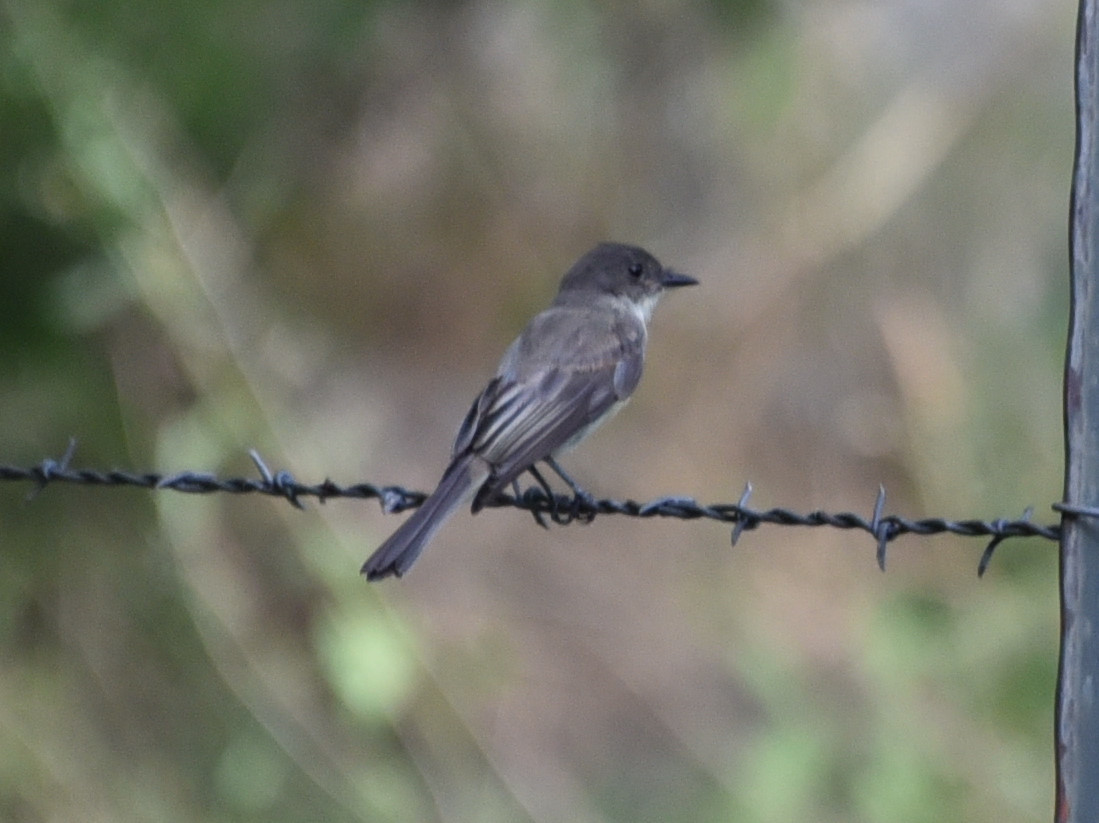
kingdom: Animalia
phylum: Chordata
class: Aves
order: Passeriformes
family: Tyrannidae
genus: Sayornis
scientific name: Sayornis phoebe
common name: Eastern phoebe
